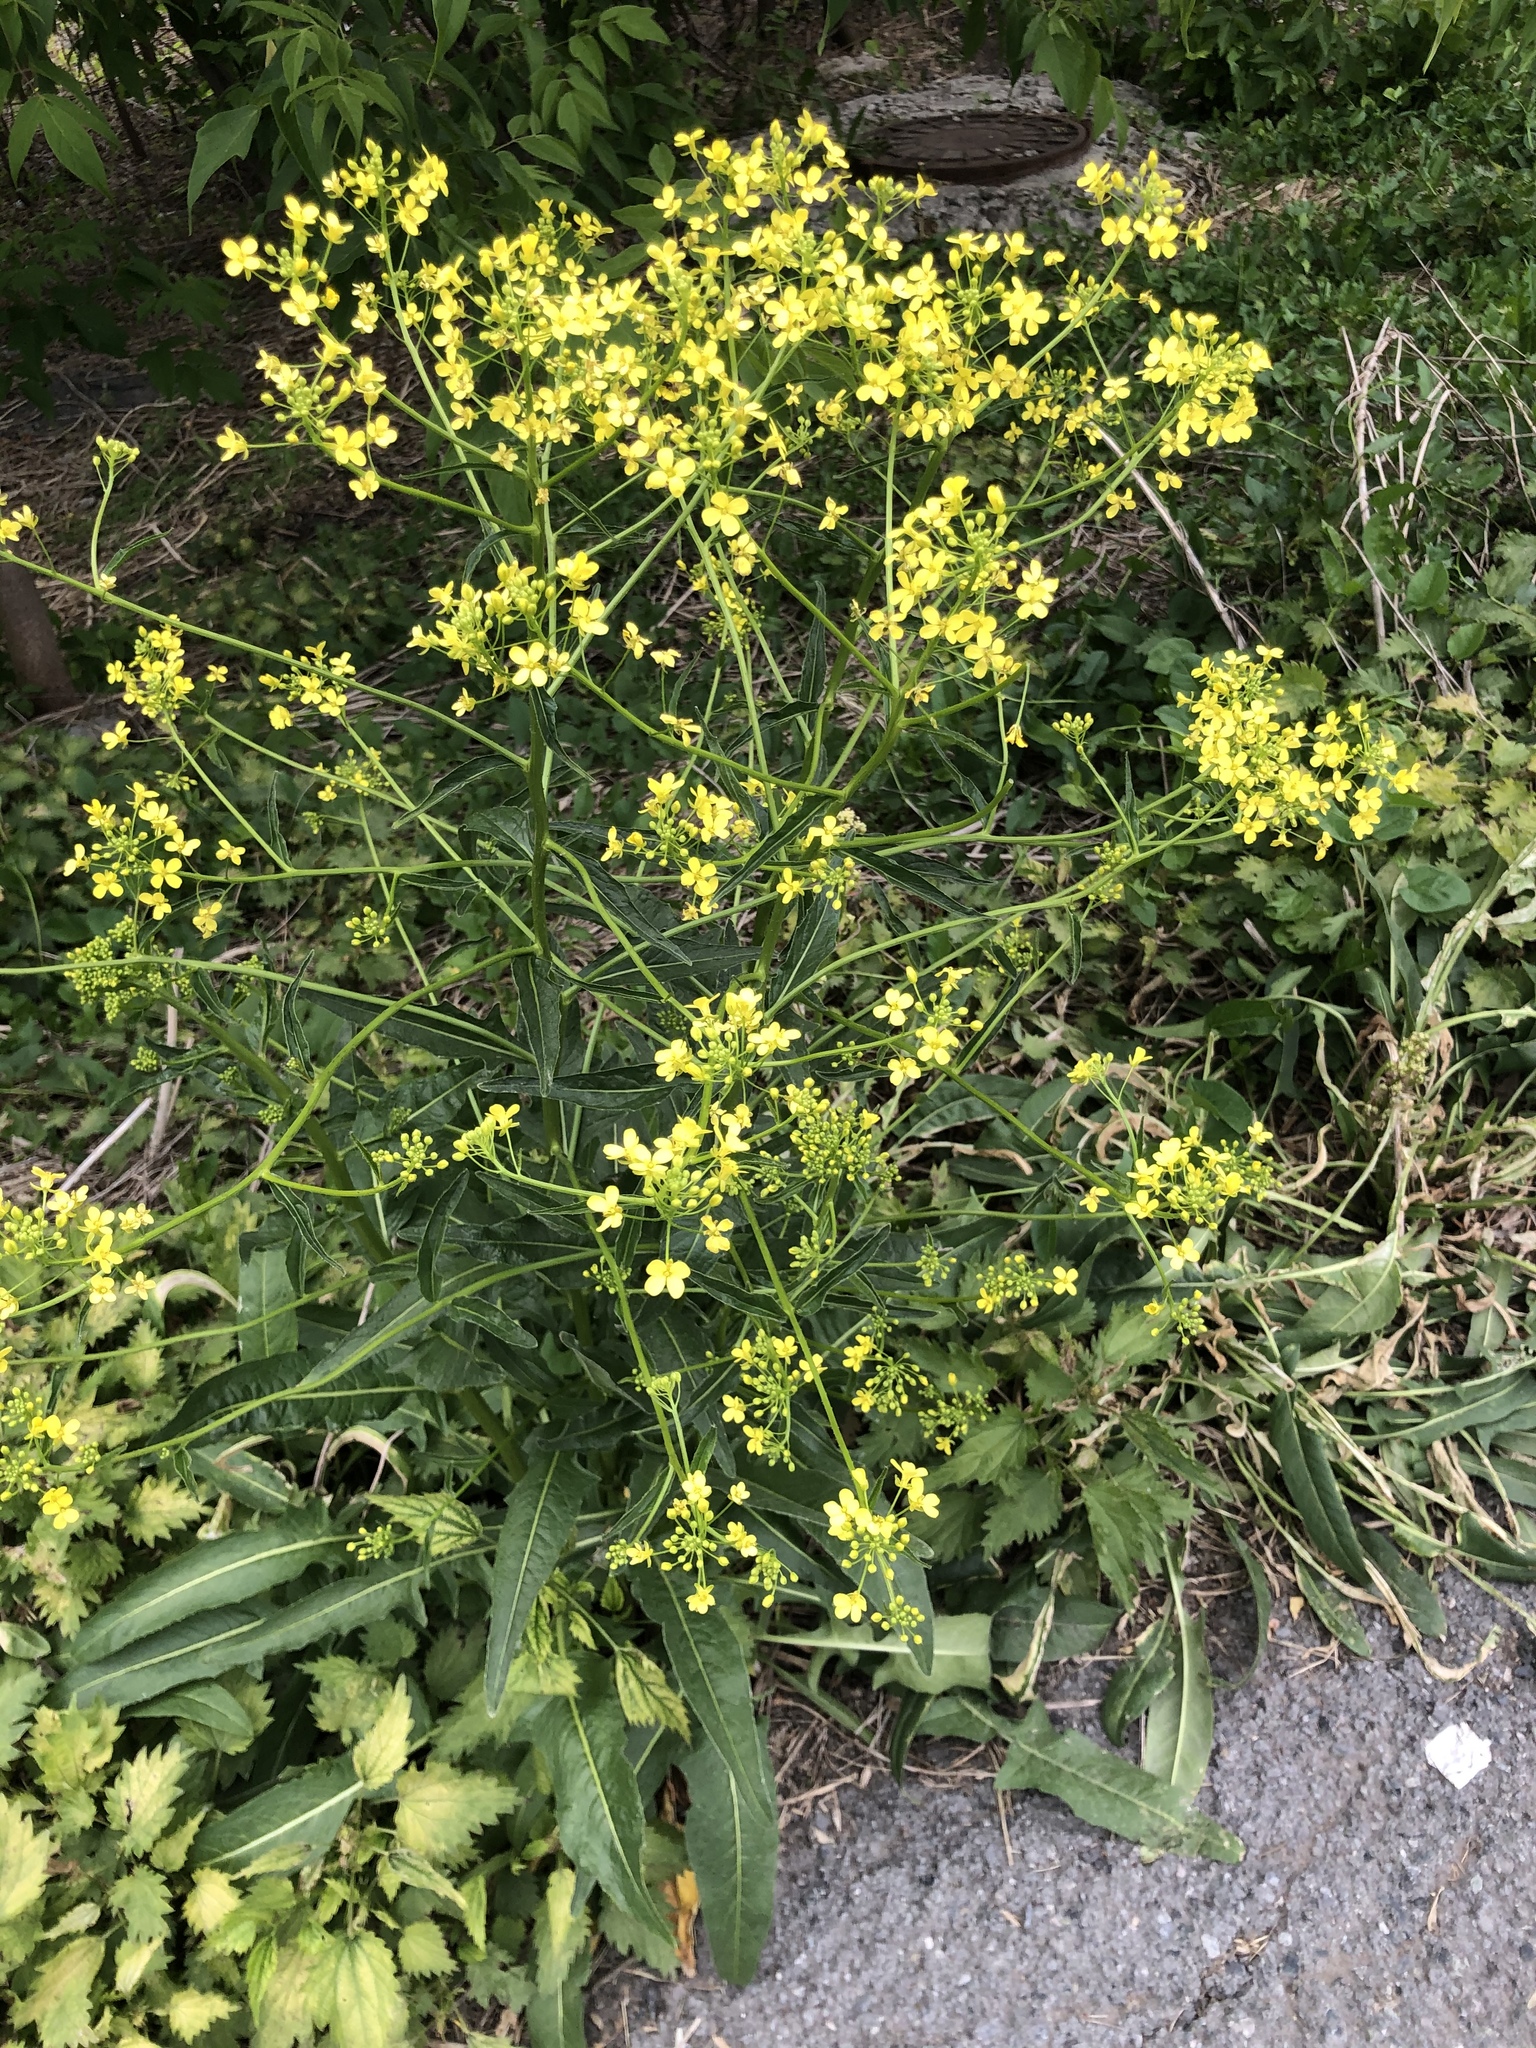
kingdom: Plantae
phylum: Tracheophyta
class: Magnoliopsida
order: Brassicales
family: Brassicaceae
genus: Bunias
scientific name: Bunias orientalis
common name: Warty-cabbage
